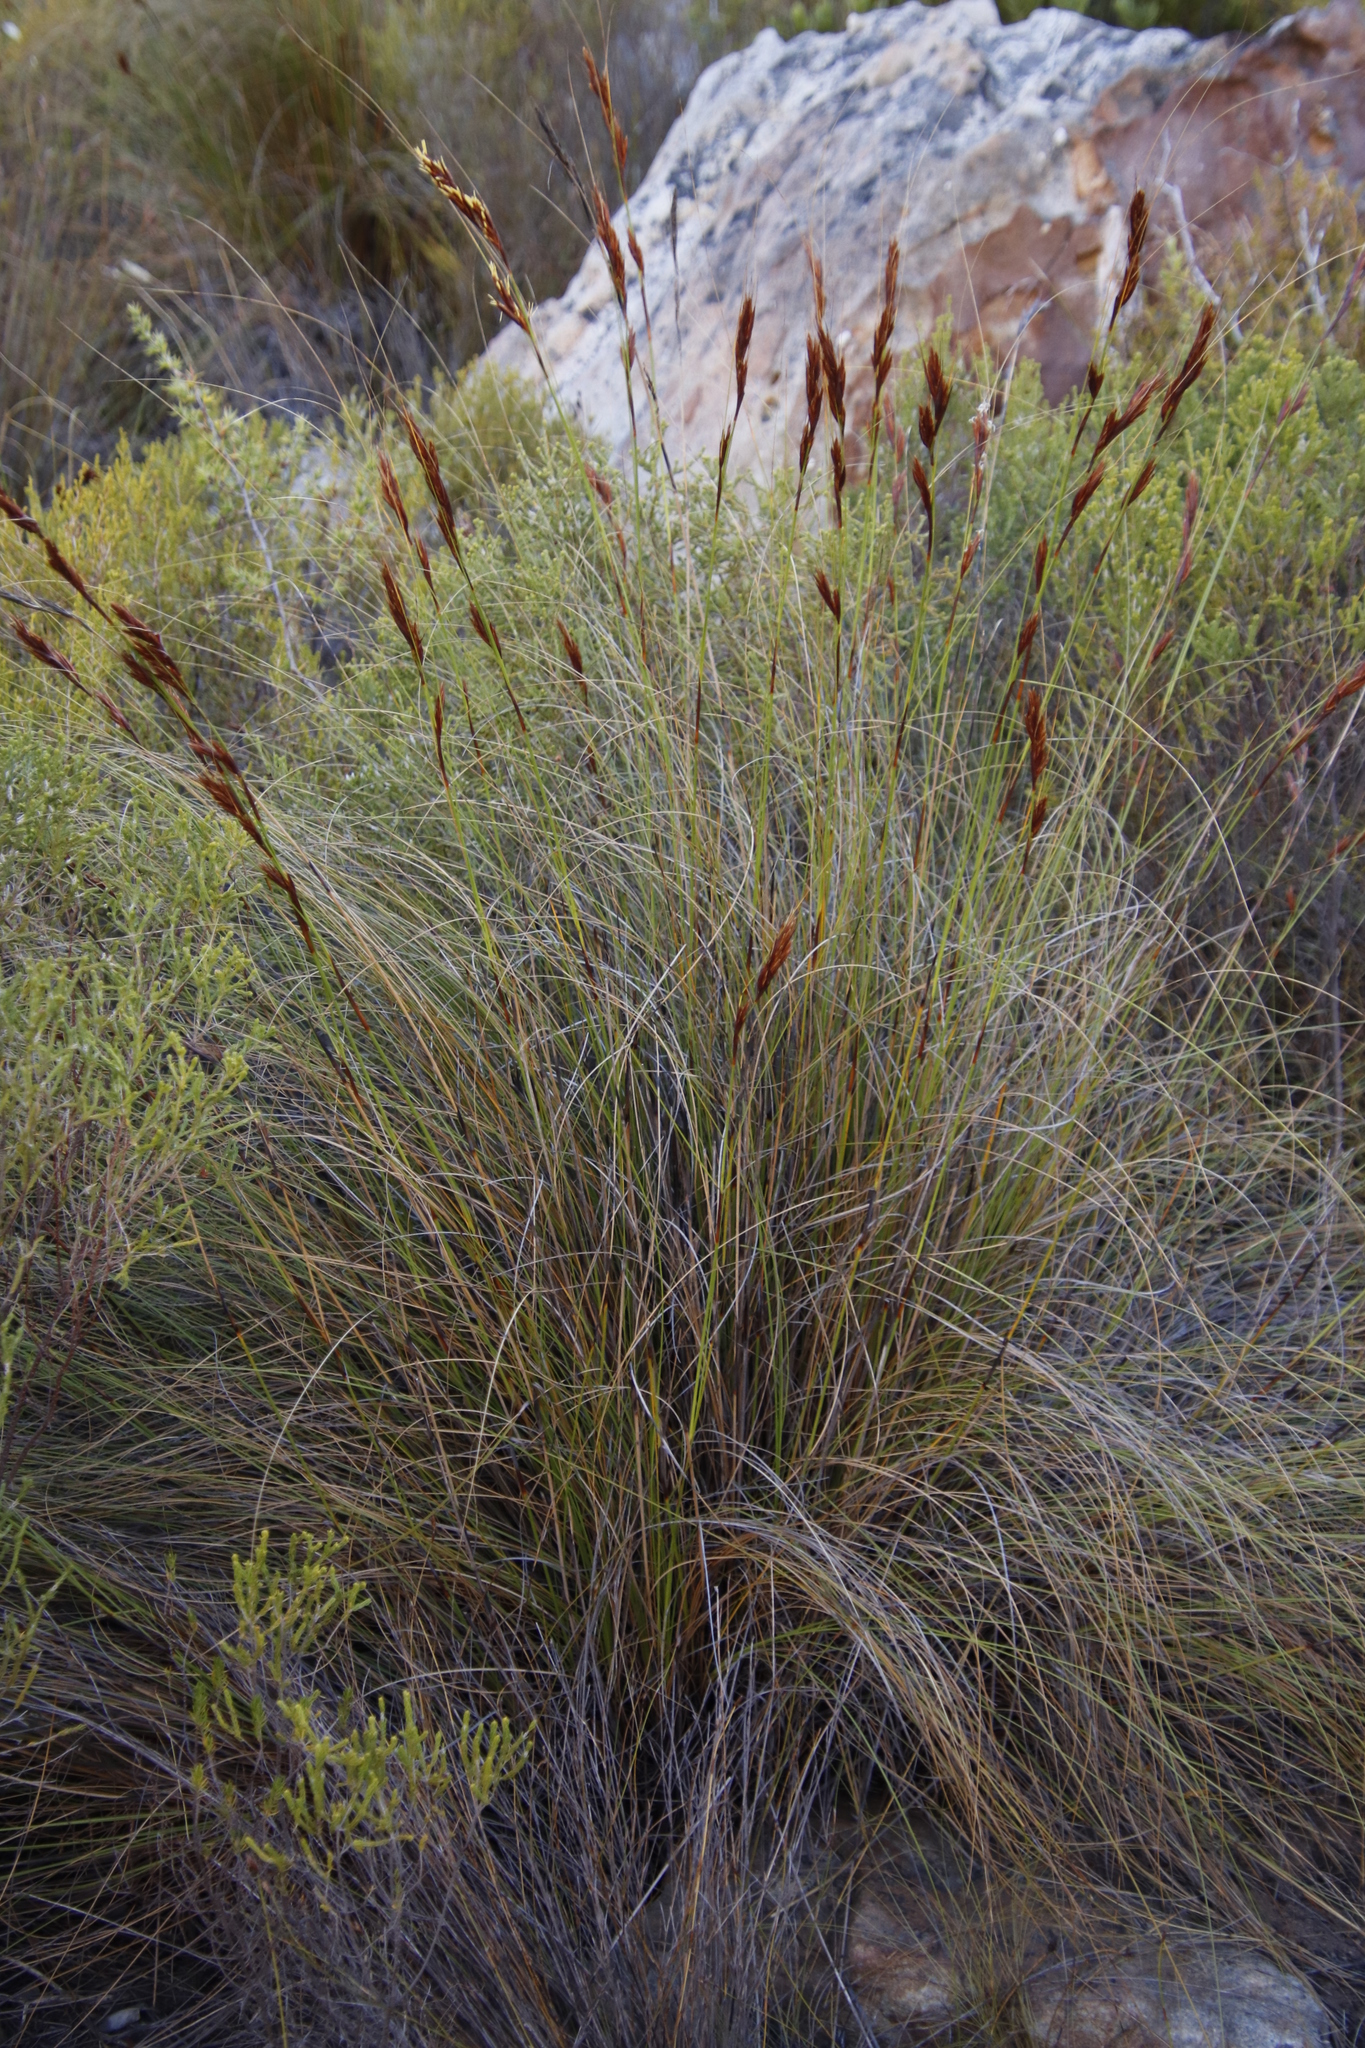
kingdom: Plantae
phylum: Tracheophyta
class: Liliopsida
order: Poales
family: Cyperaceae
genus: Tetraria
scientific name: Tetraria ustulata
